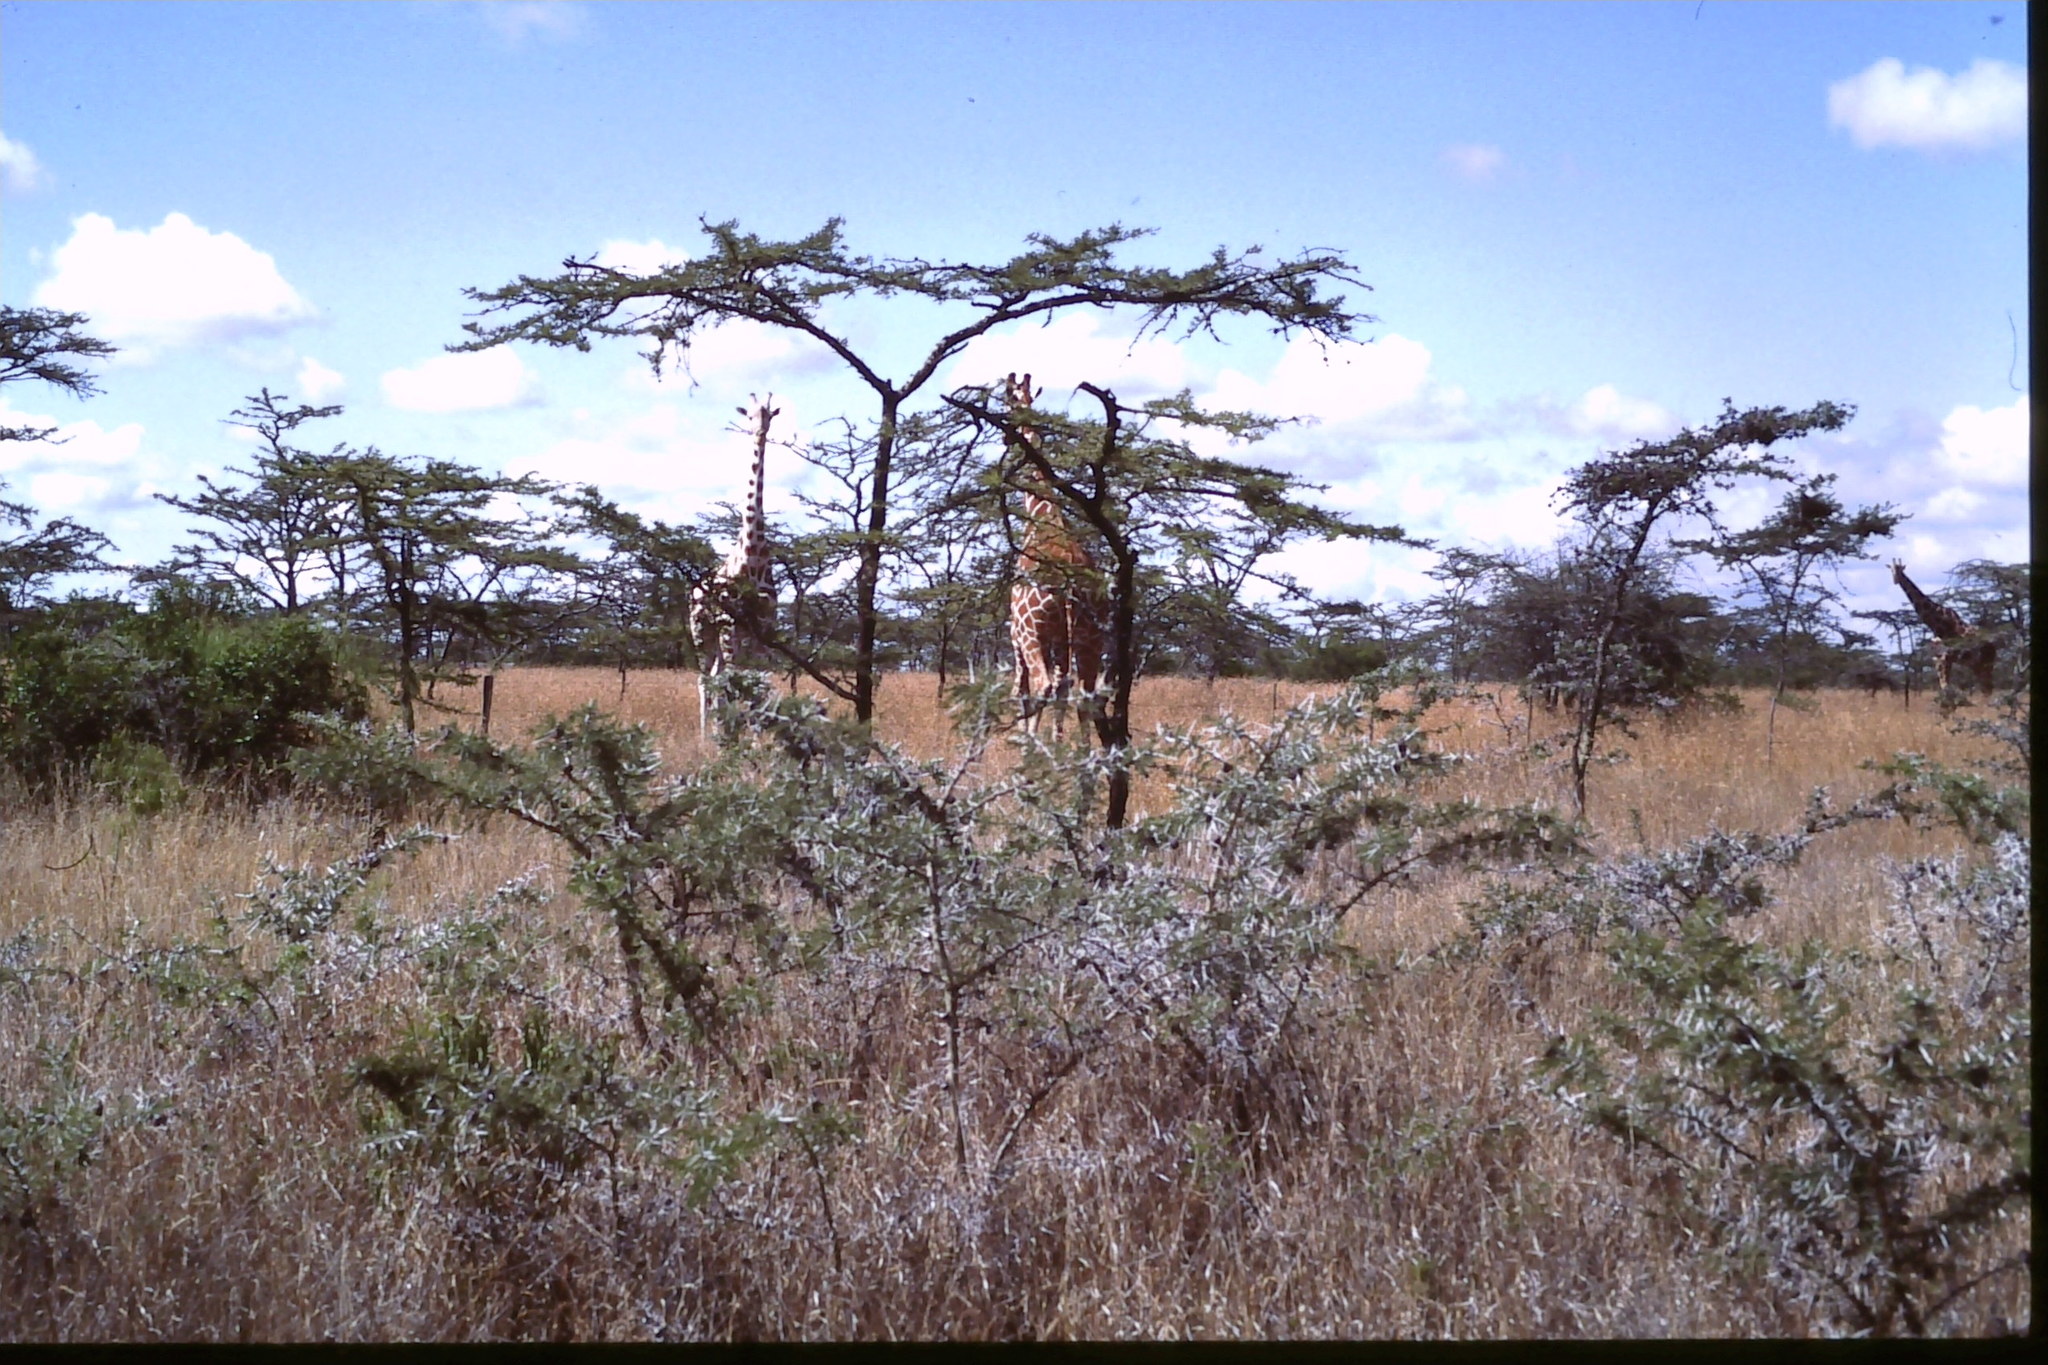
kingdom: Animalia
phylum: Chordata
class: Mammalia
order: Artiodactyla
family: Giraffidae
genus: Giraffa
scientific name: Giraffa reticulata
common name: Reticulated giraffe
